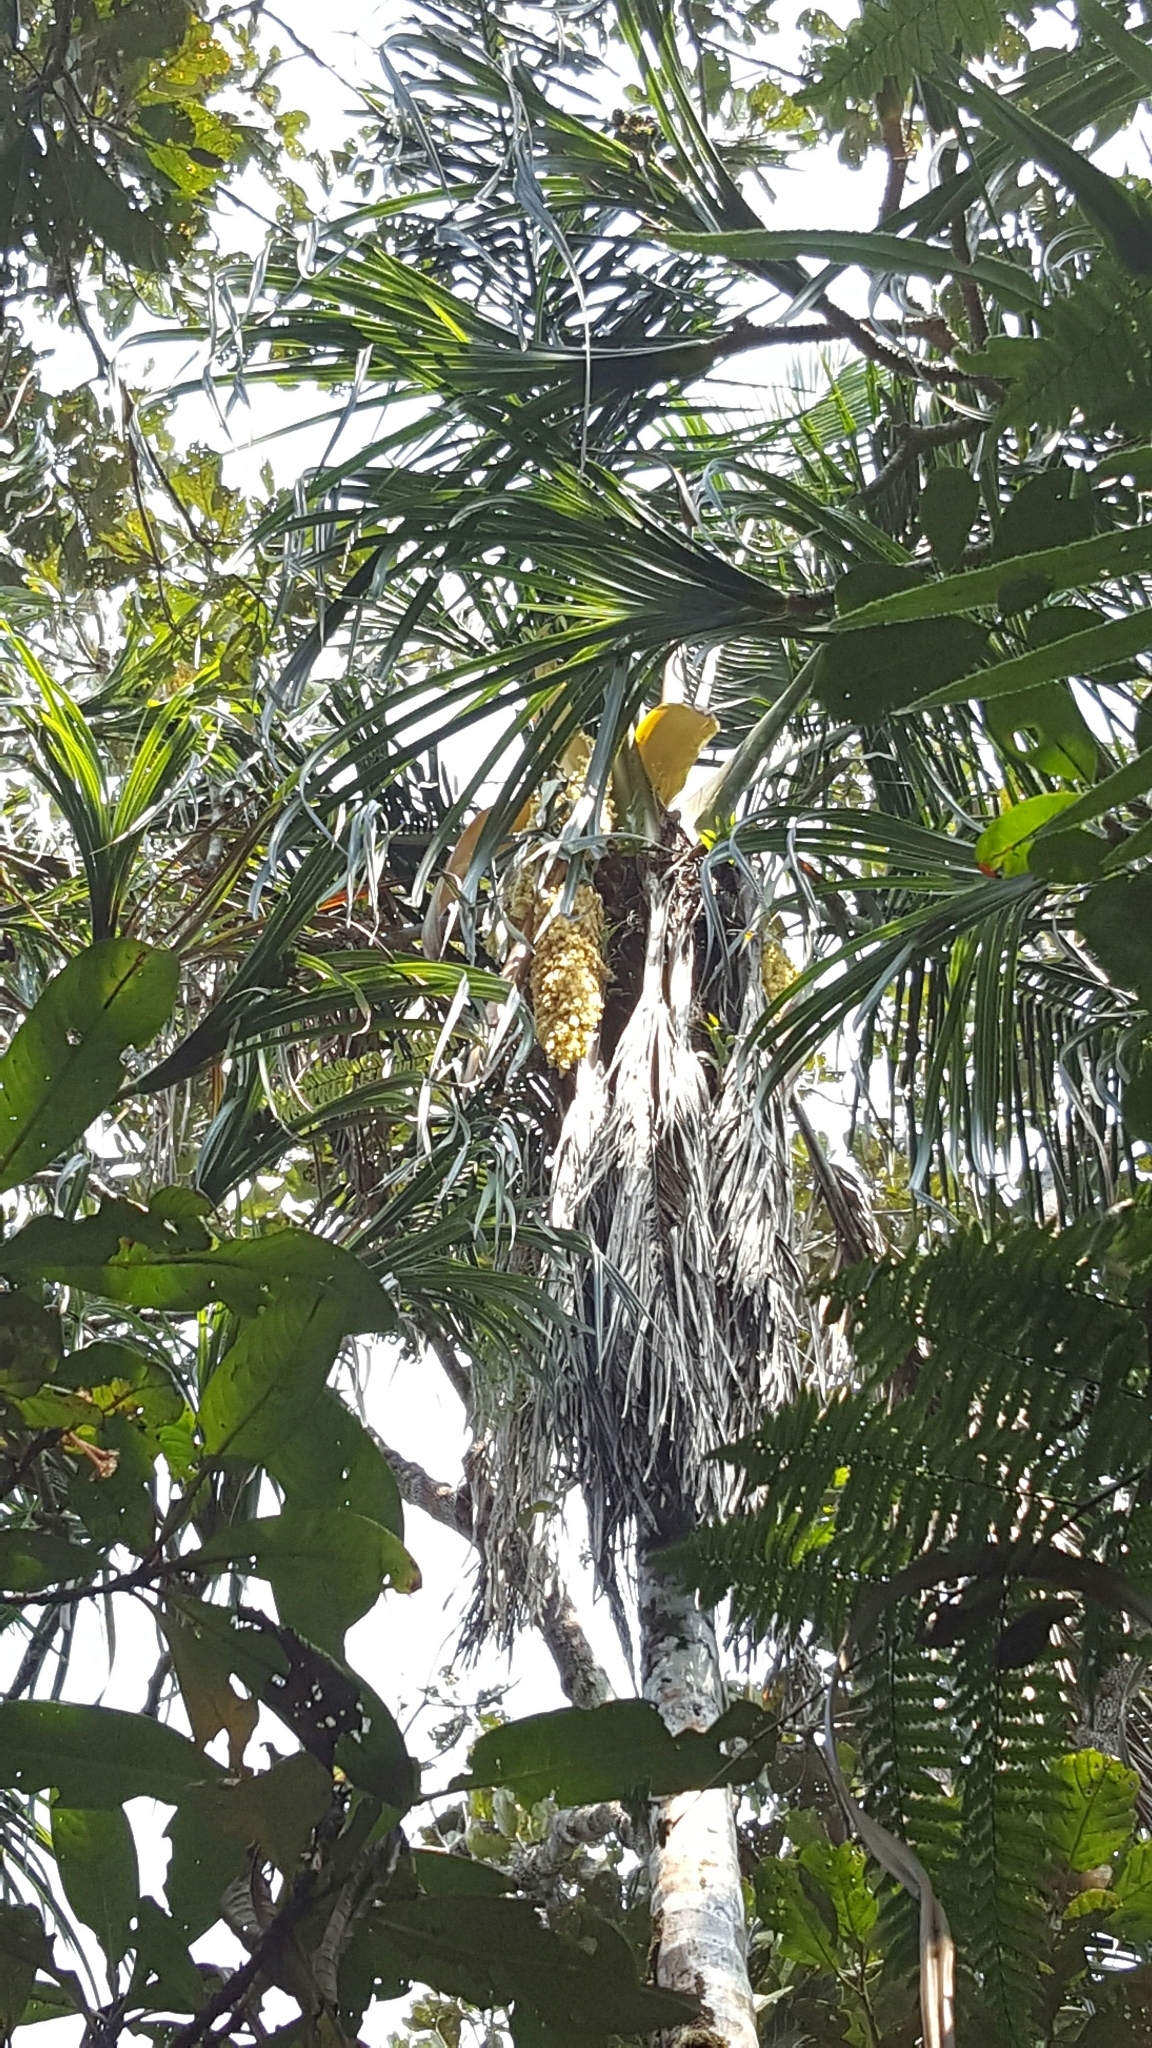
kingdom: Plantae
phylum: Tracheophyta
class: Liliopsida
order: Arecales
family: Arecaceae
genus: Ravenea
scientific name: Ravenea beentjei
